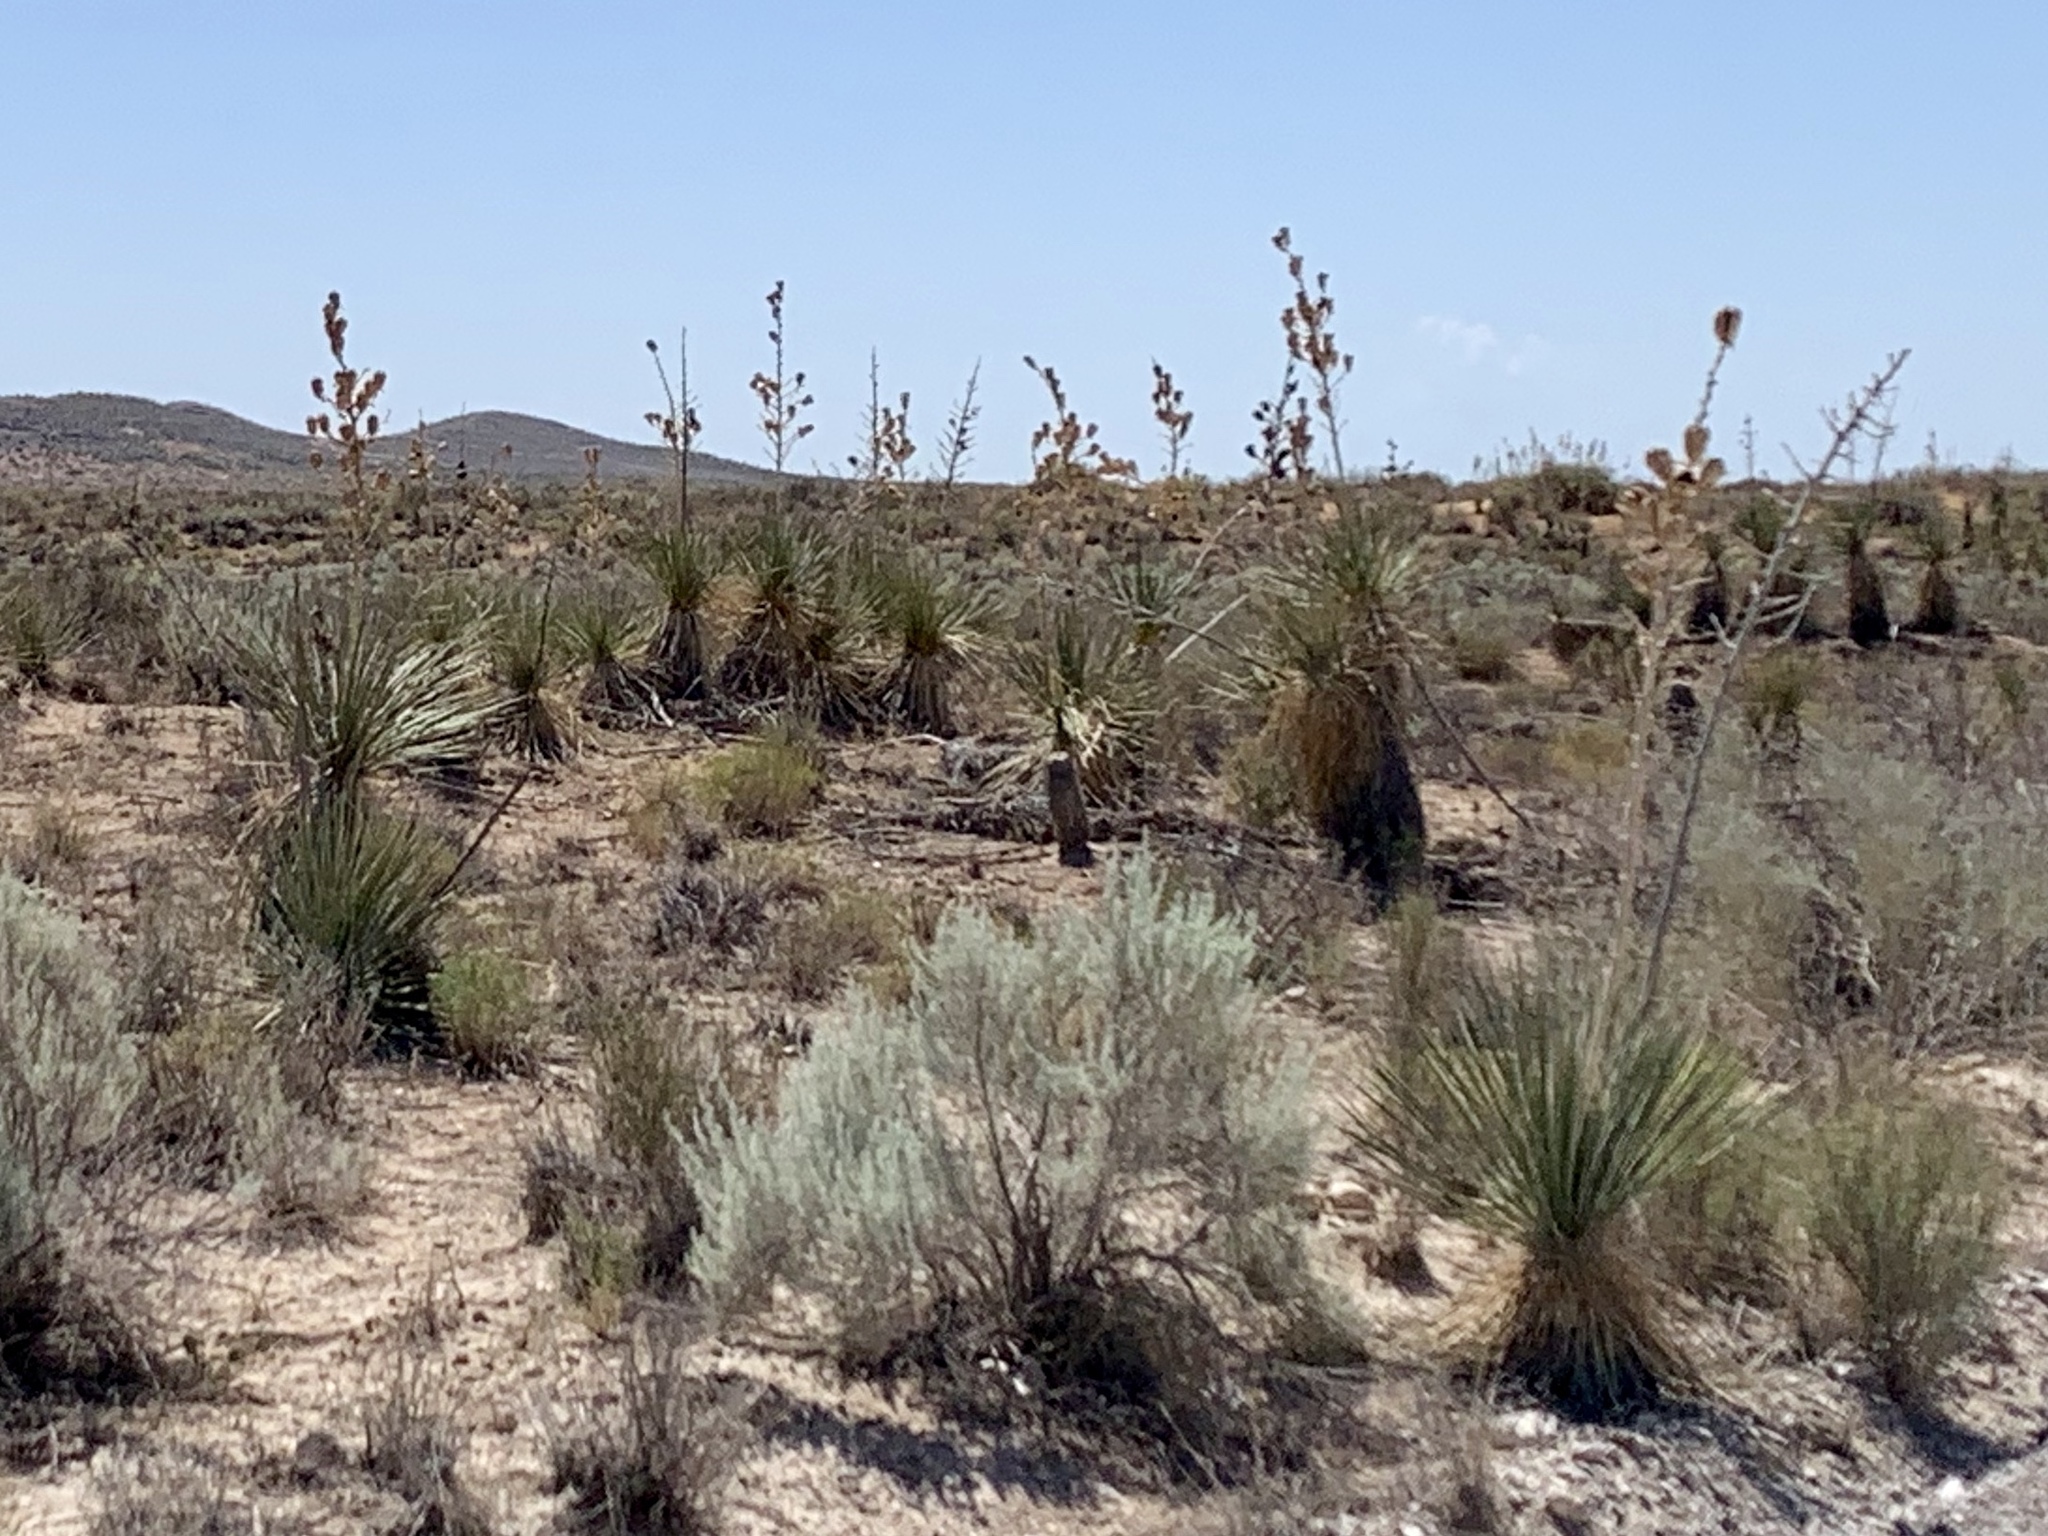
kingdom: Plantae
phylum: Tracheophyta
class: Liliopsida
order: Asparagales
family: Asparagaceae
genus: Yucca
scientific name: Yucca elata
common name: Palmella
